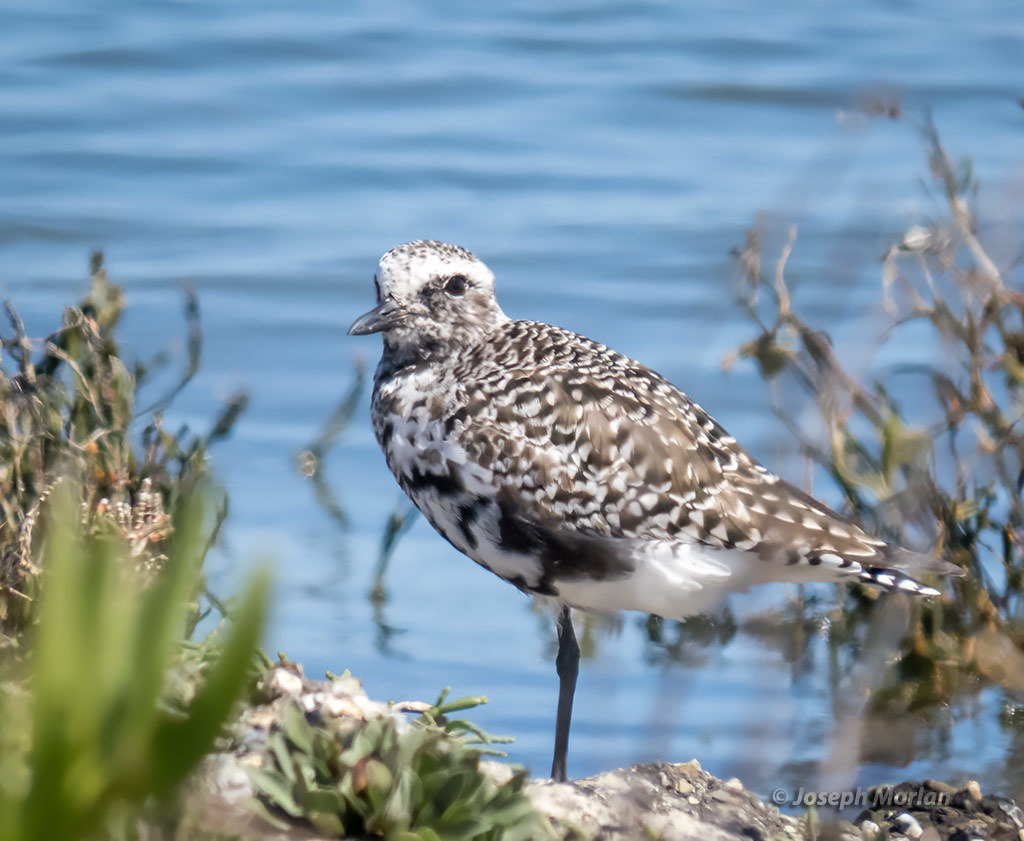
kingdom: Animalia
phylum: Chordata
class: Aves
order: Charadriiformes
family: Charadriidae
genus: Pluvialis
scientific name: Pluvialis squatarola
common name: Grey plover
